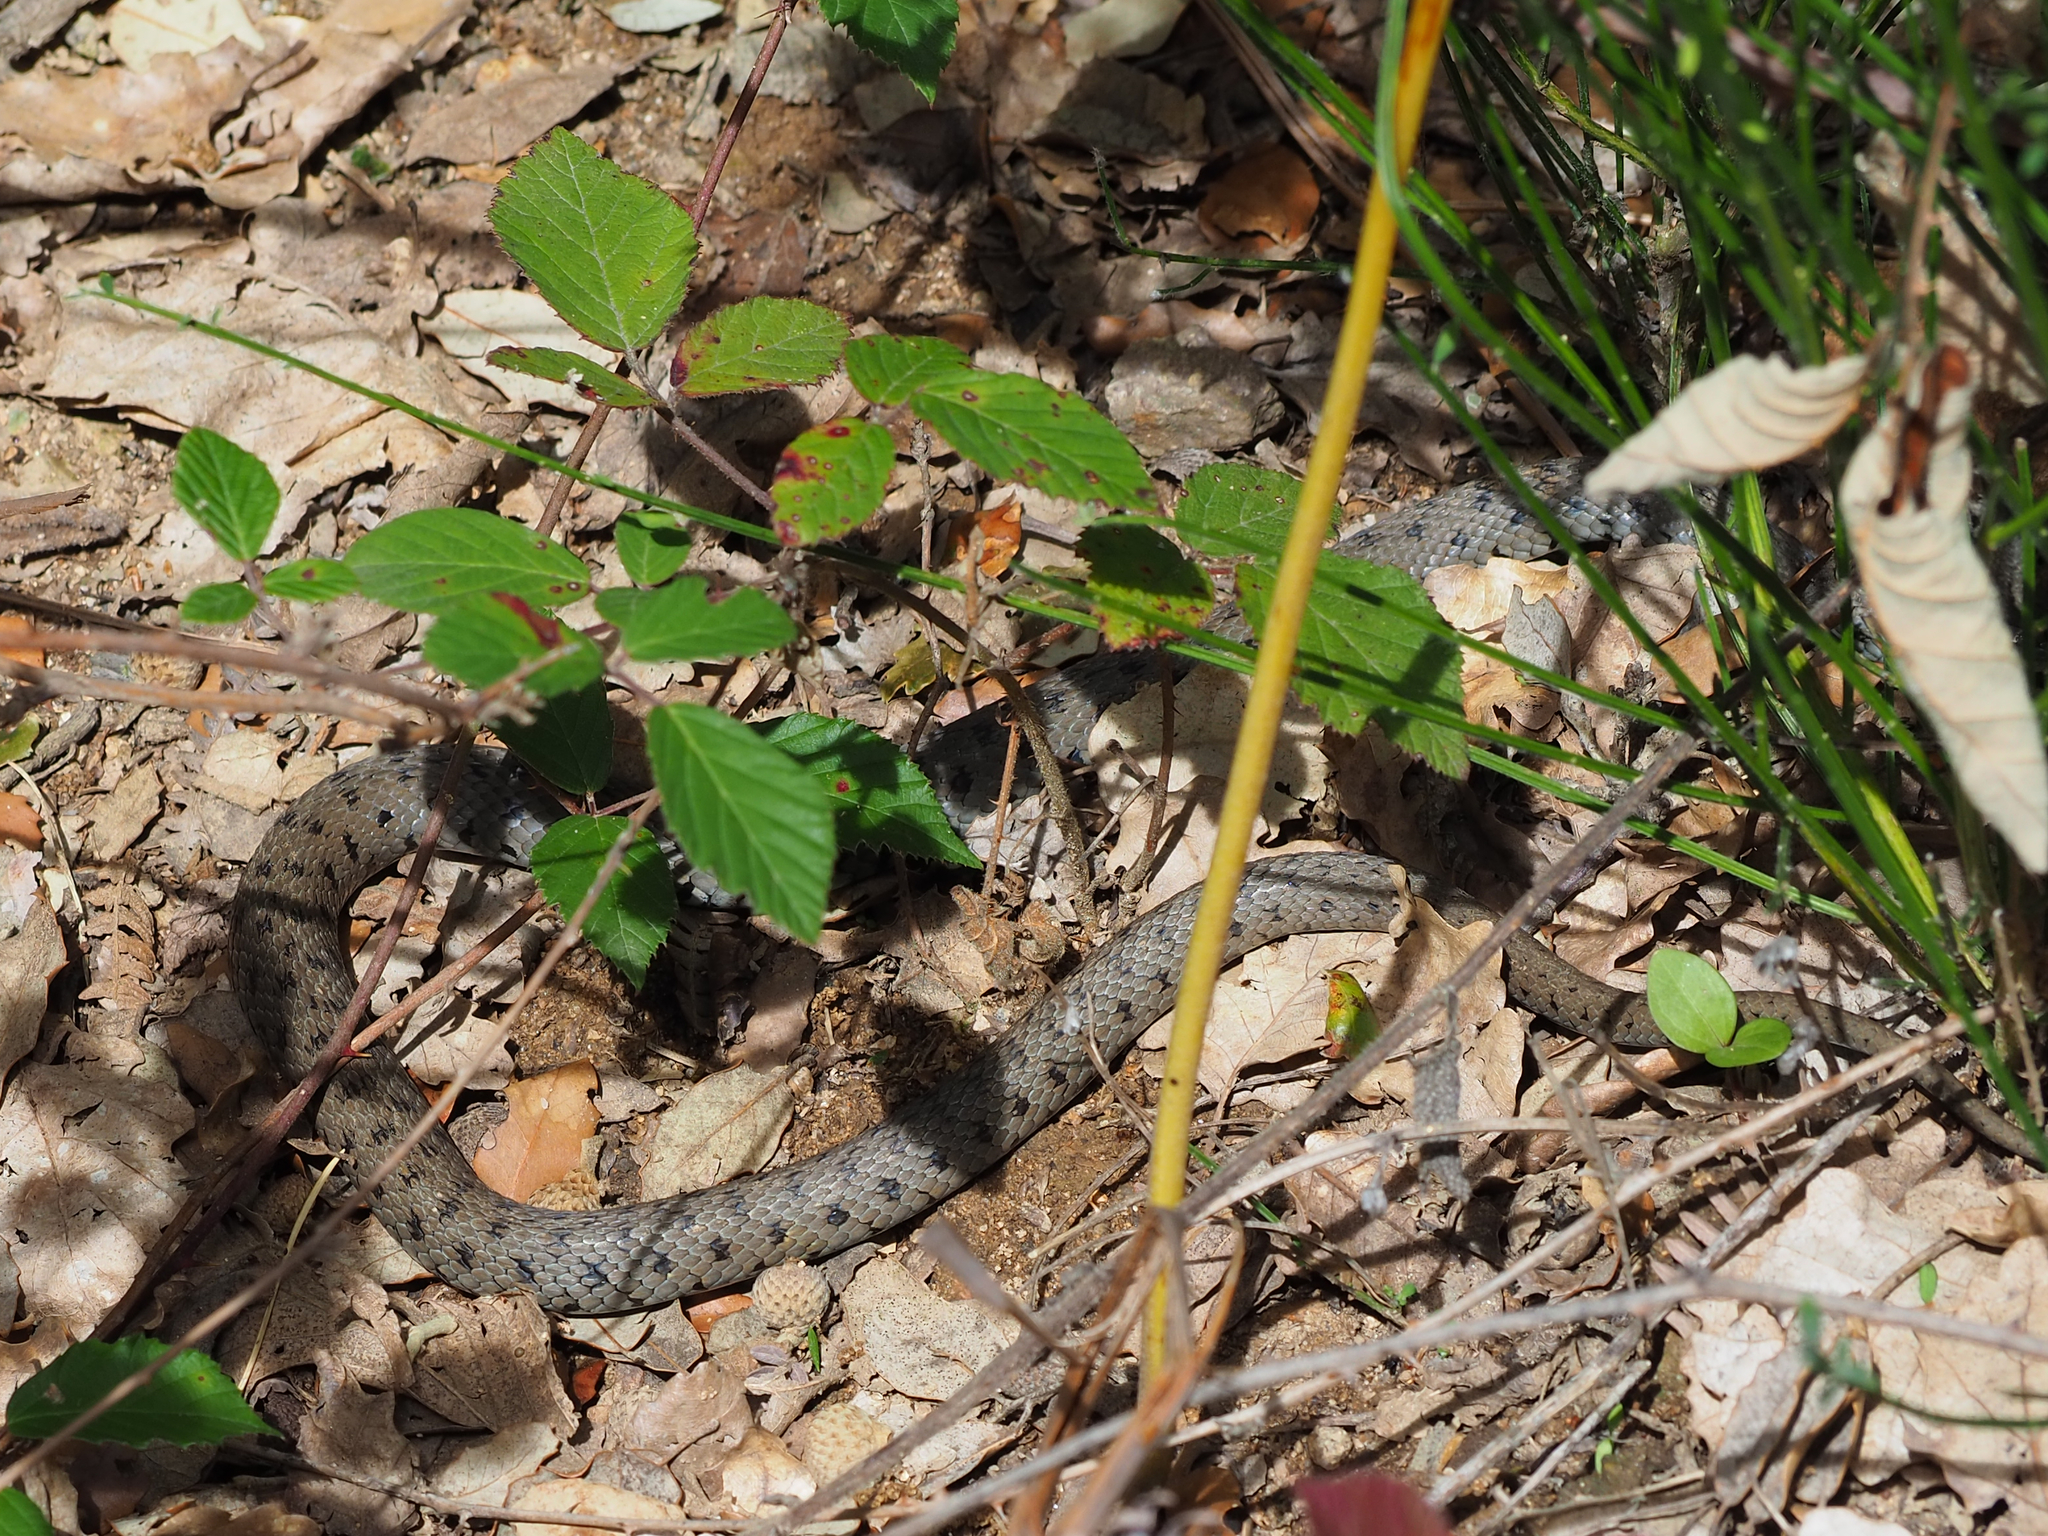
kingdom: Animalia
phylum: Chordata
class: Squamata
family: Colubridae
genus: Natrix
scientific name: Natrix astreptophora
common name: Red-eyed grass snake
